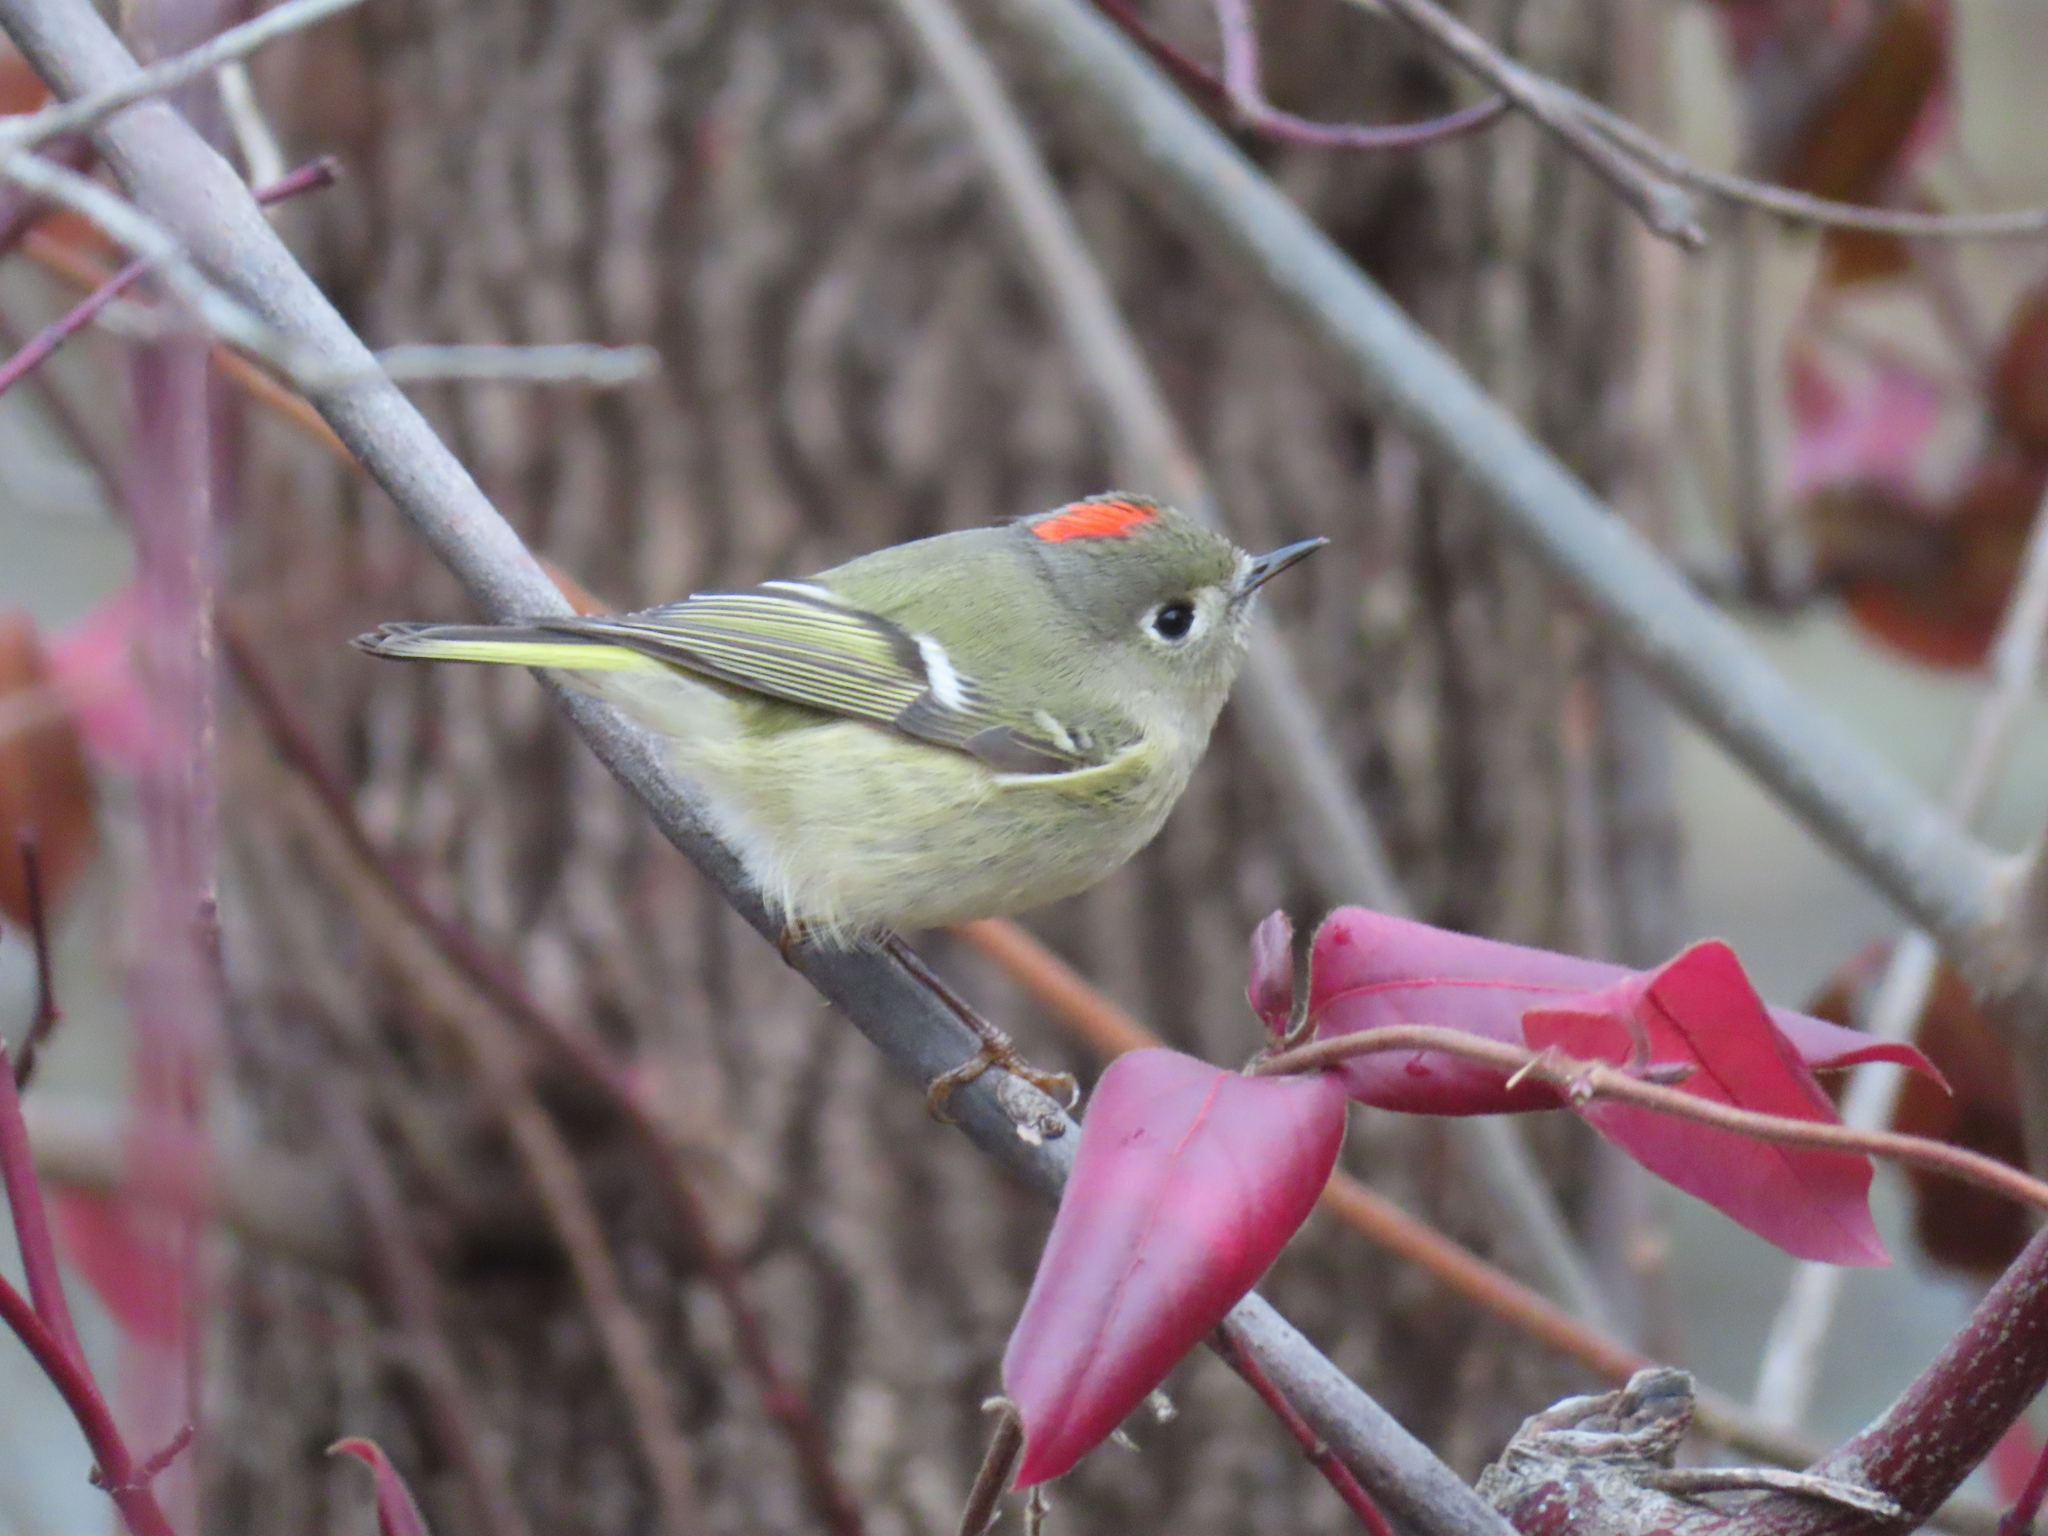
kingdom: Animalia
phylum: Chordata
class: Aves
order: Passeriformes
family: Regulidae
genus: Regulus
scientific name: Regulus calendula
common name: Ruby-crowned kinglet
